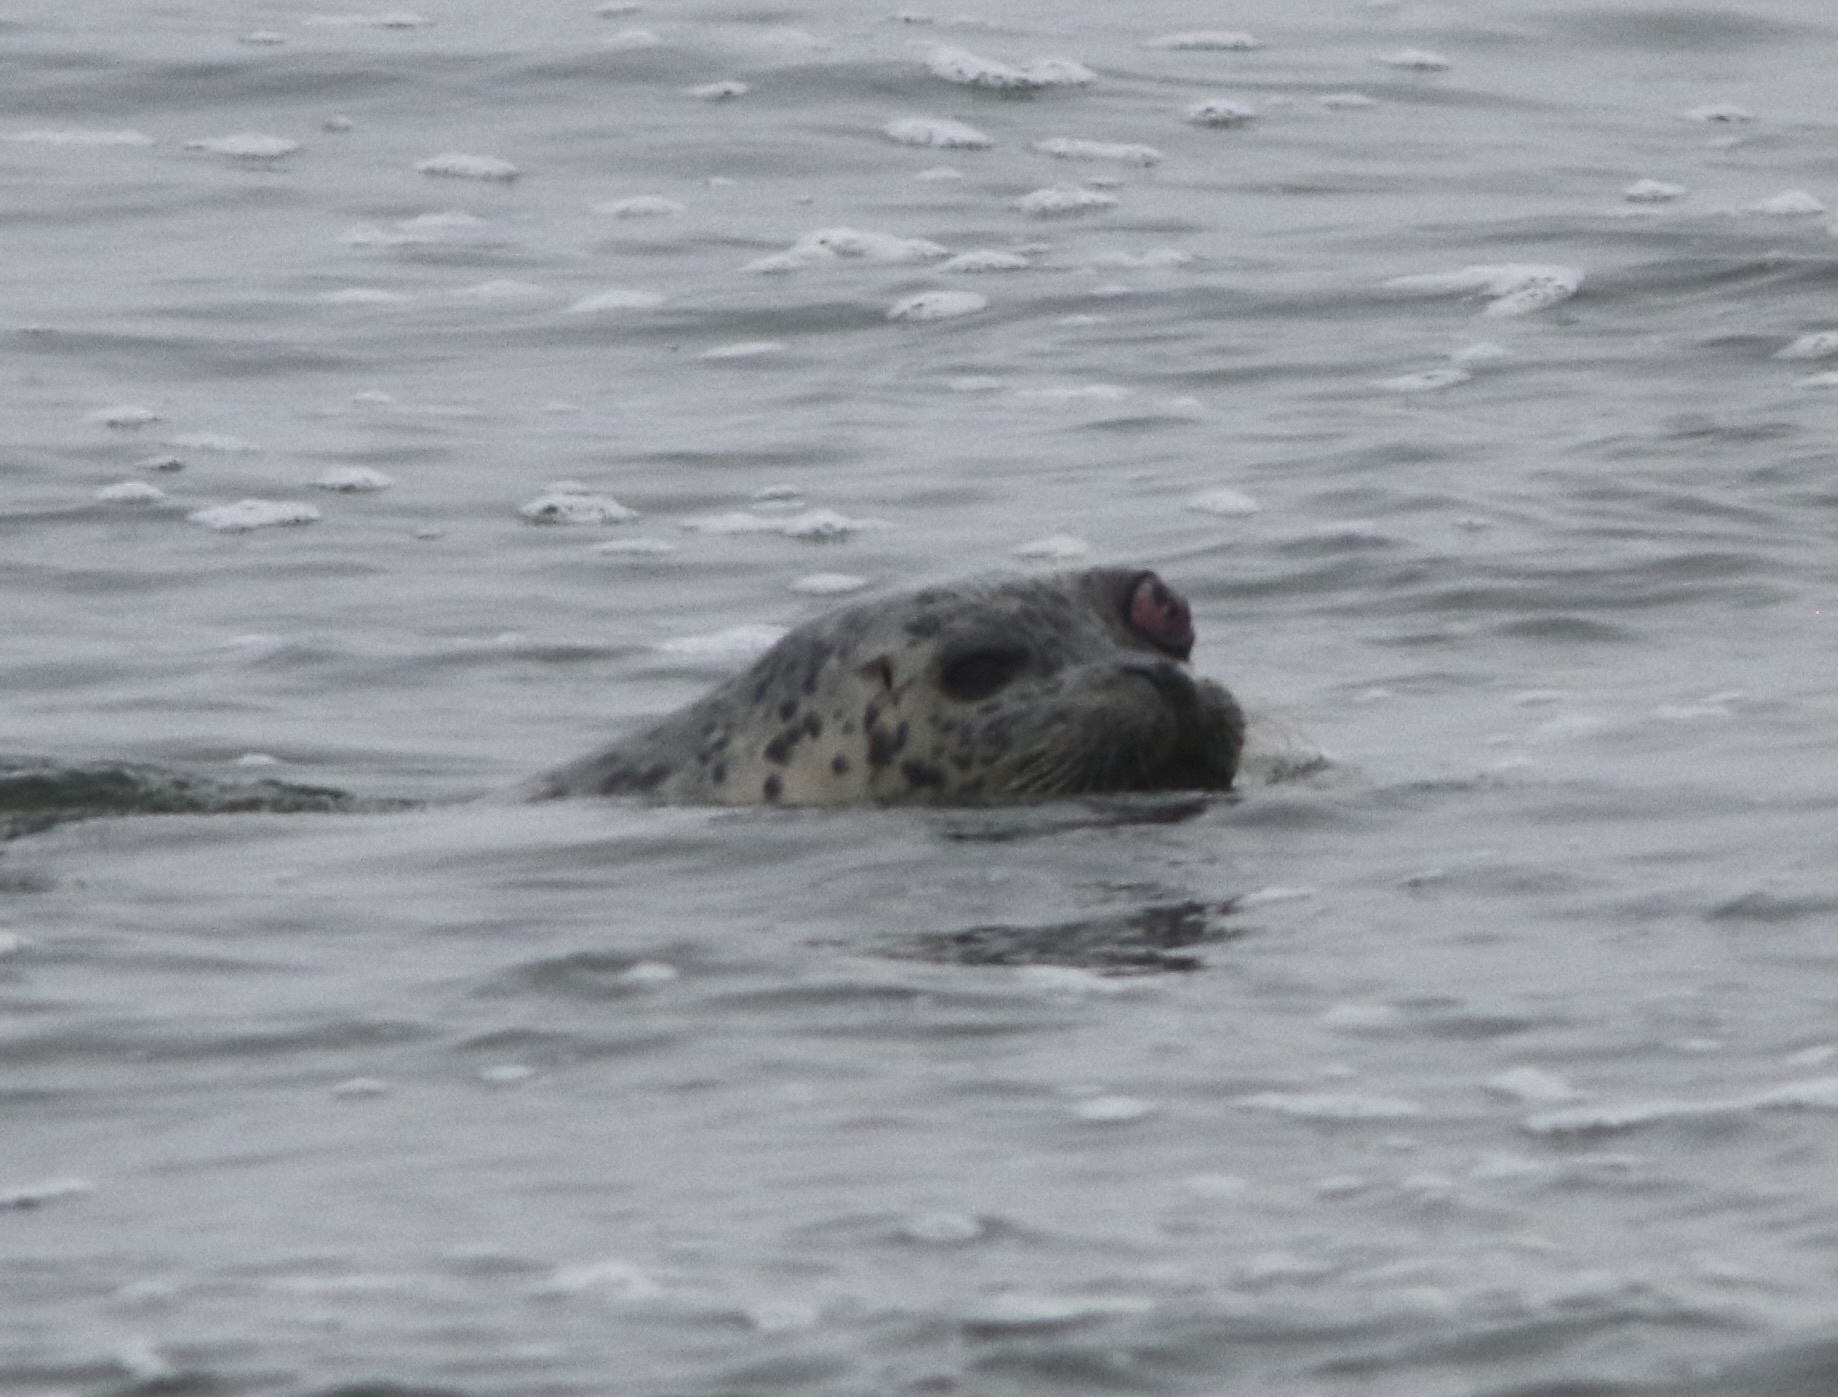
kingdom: Animalia
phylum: Chordata
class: Mammalia
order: Carnivora
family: Phocidae
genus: Phoca
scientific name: Phoca vitulina
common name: Harbor seal
